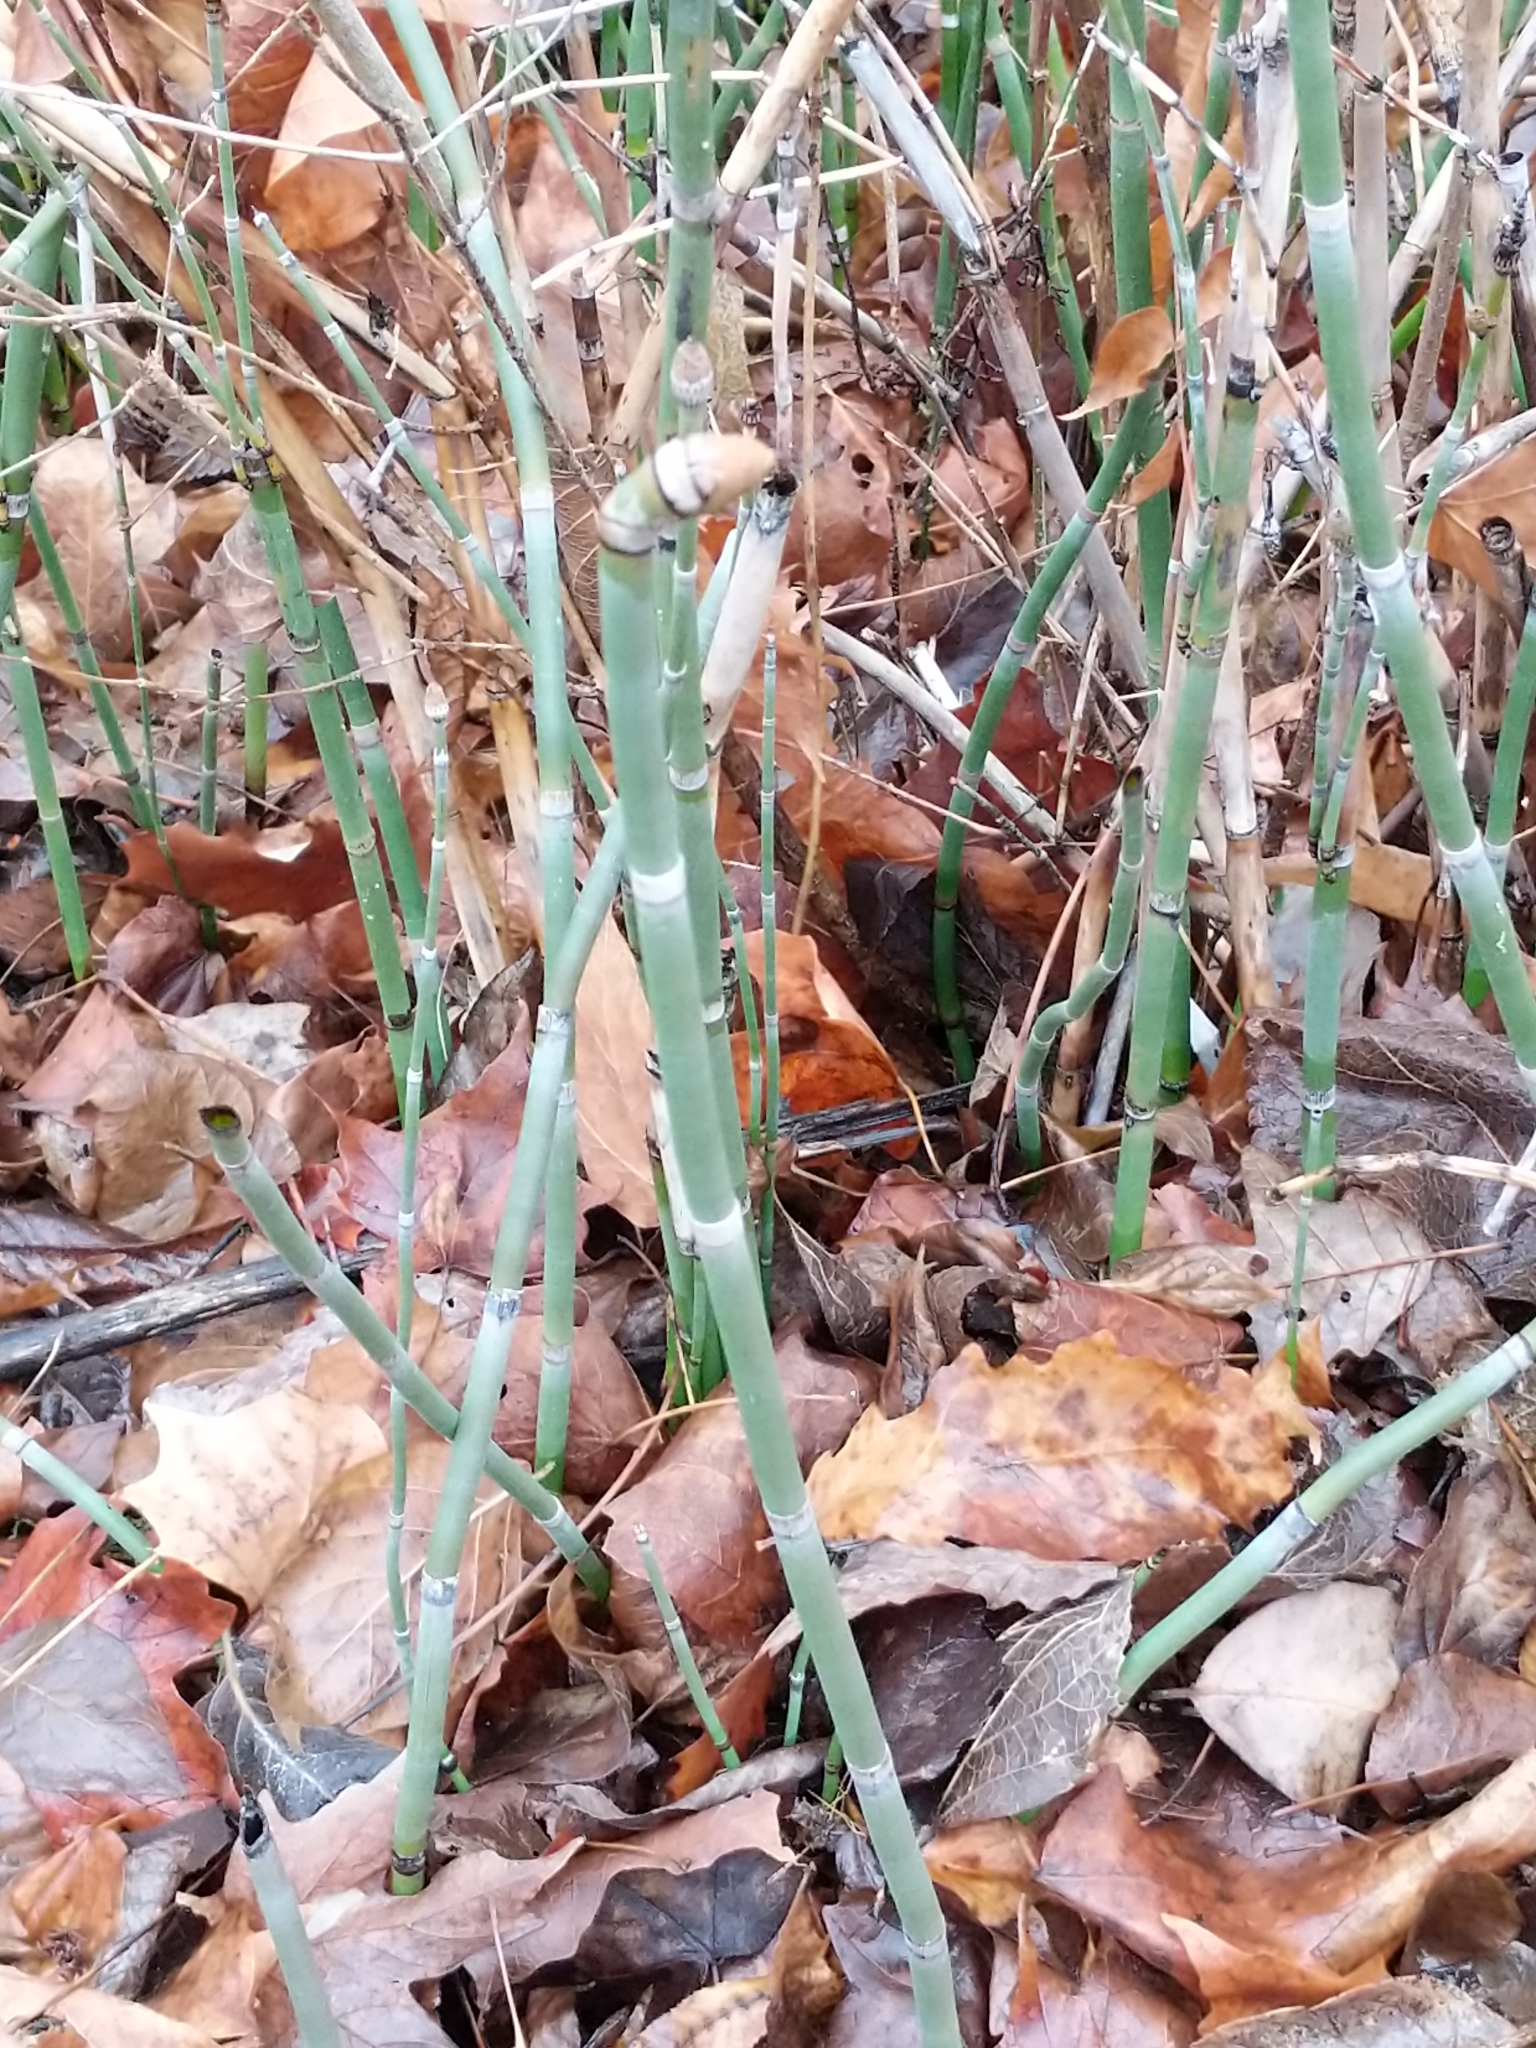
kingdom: Plantae
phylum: Tracheophyta
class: Polypodiopsida
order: Equisetales
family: Equisetaceae
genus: Equisetum
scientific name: Equisetum praealtum
